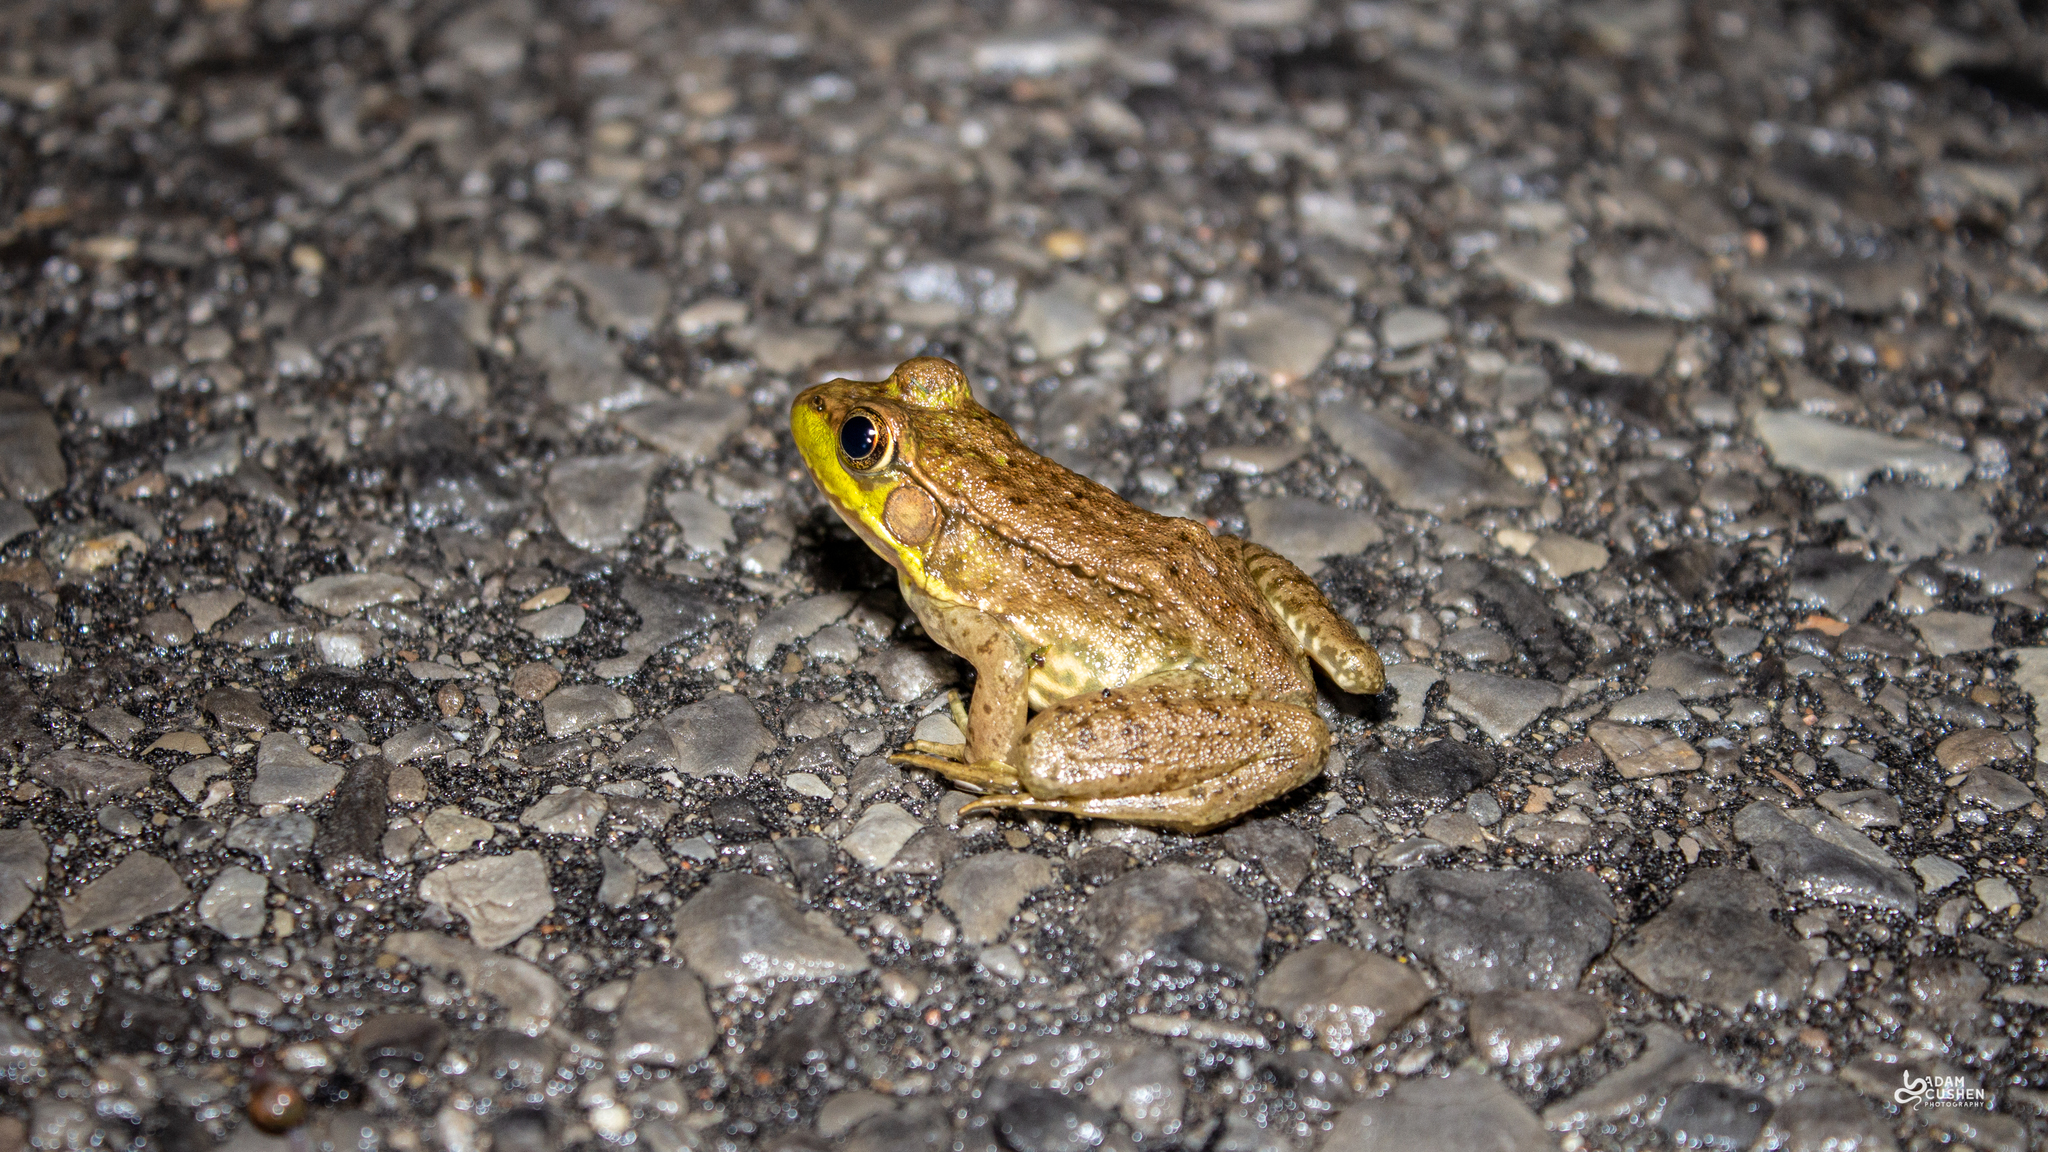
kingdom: Animalia
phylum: Chordata
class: Amphibia
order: Anura
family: Ranidae
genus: Lithobates
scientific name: Lithobates clamitans
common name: Green frog
